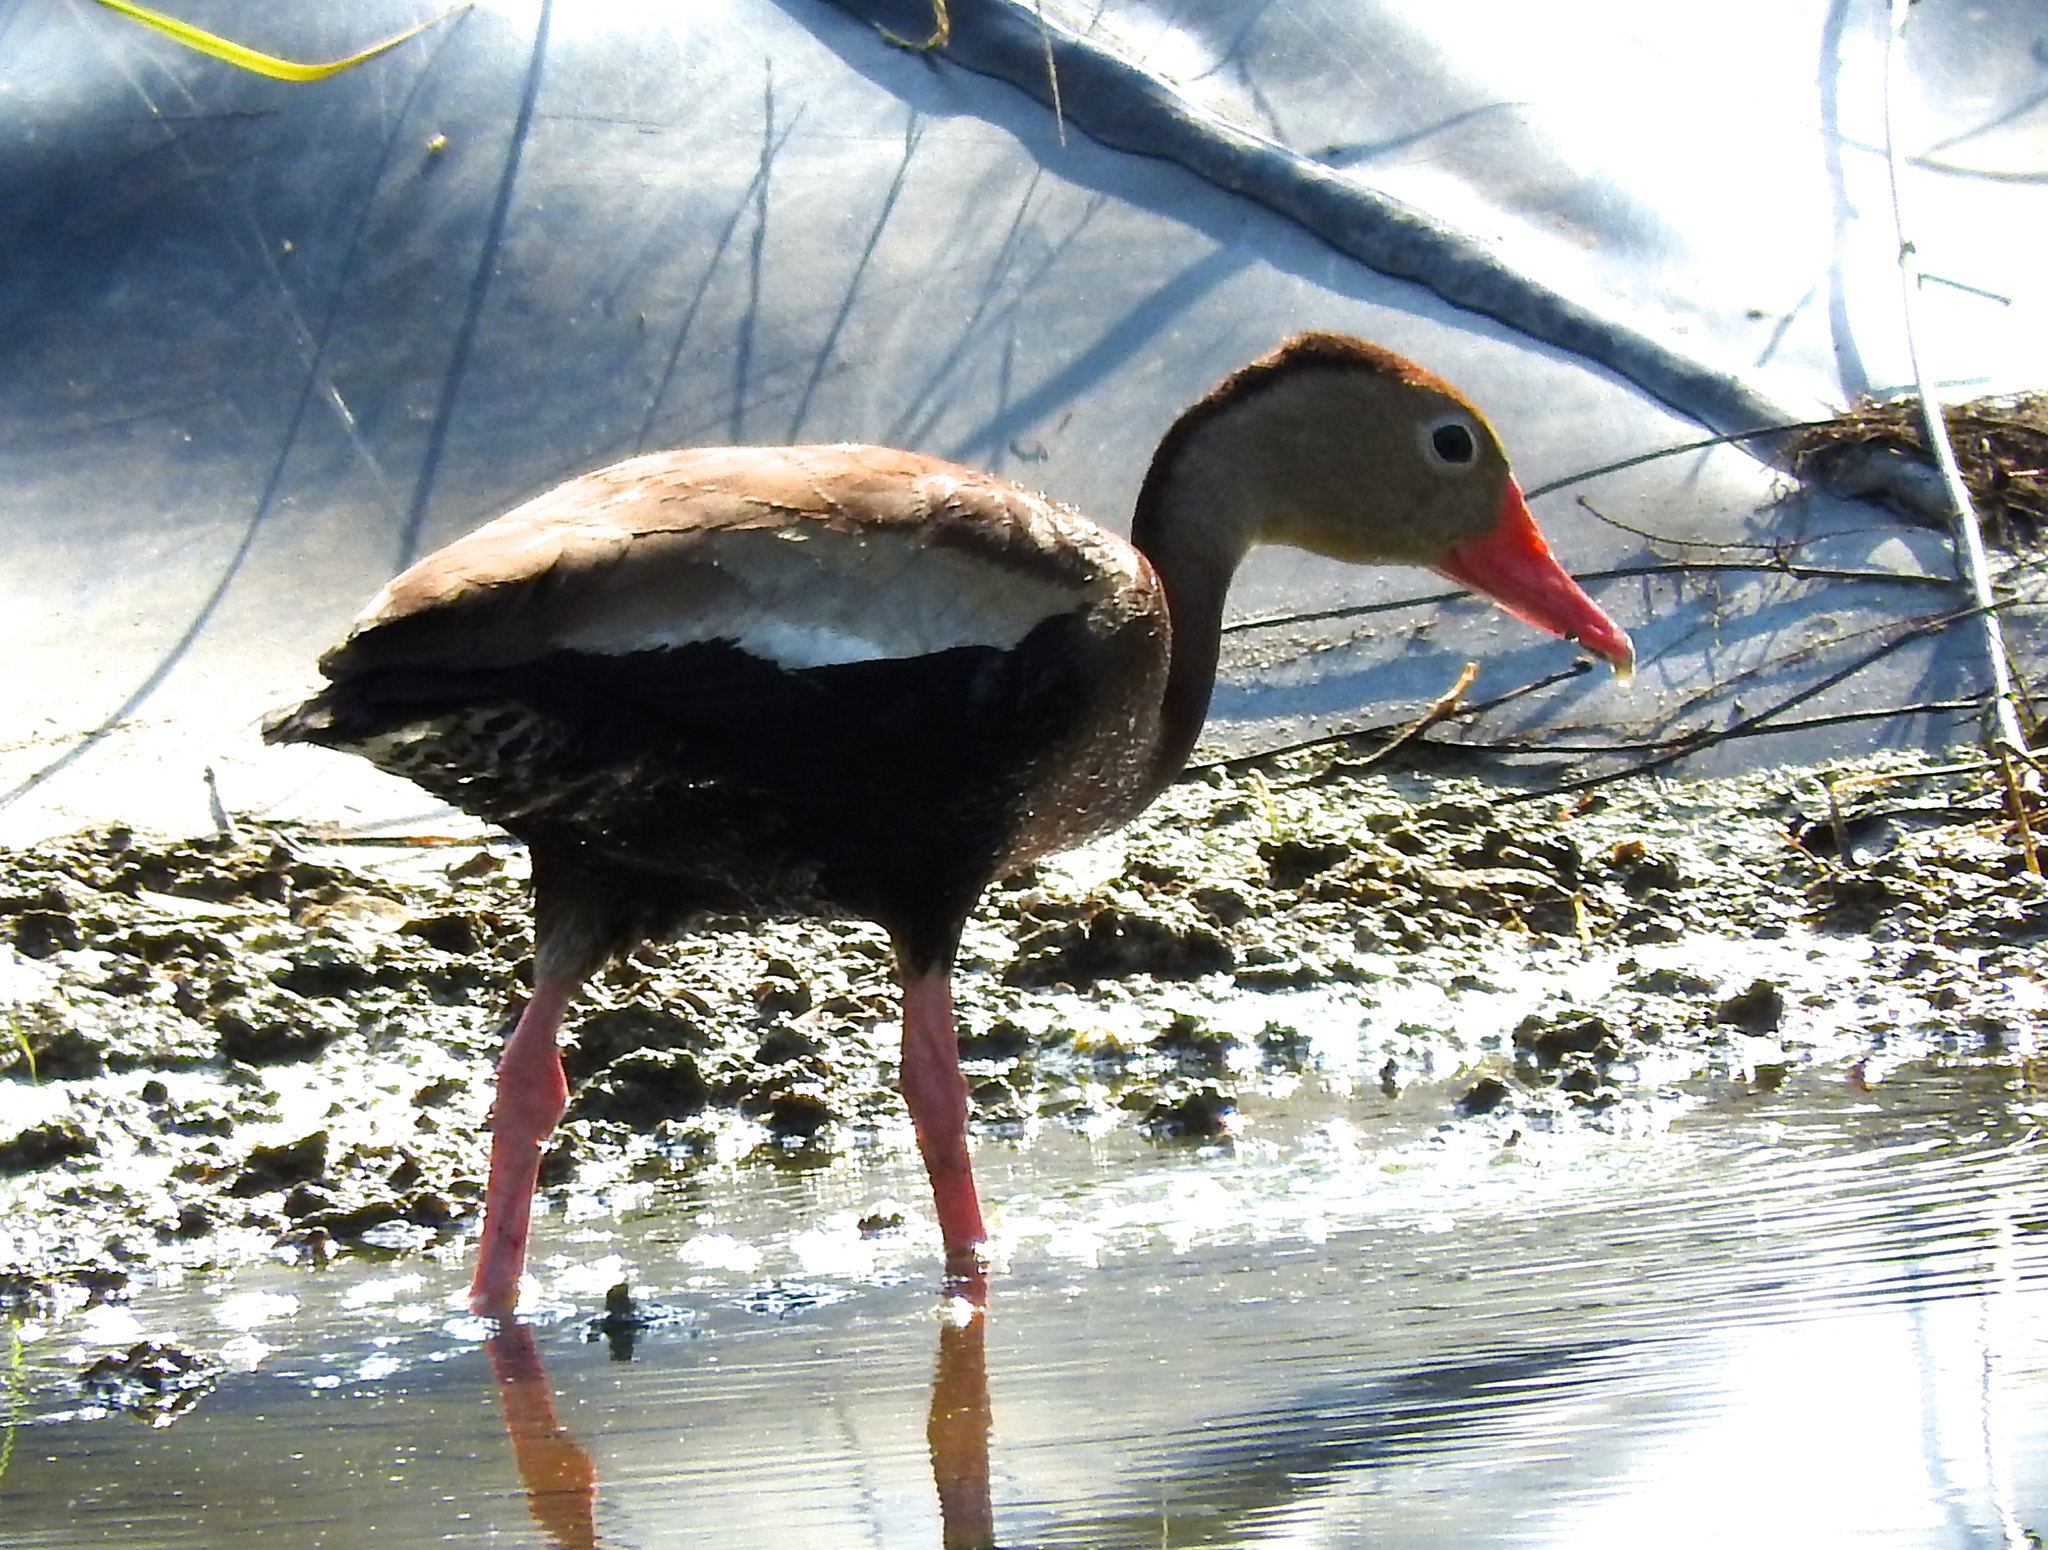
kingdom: Animalia
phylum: Chordata
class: Aves
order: Anseriformes
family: Anatidae
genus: Dendrocygna
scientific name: Dendrocygna autumnalis
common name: Black-bellied whistling duck
